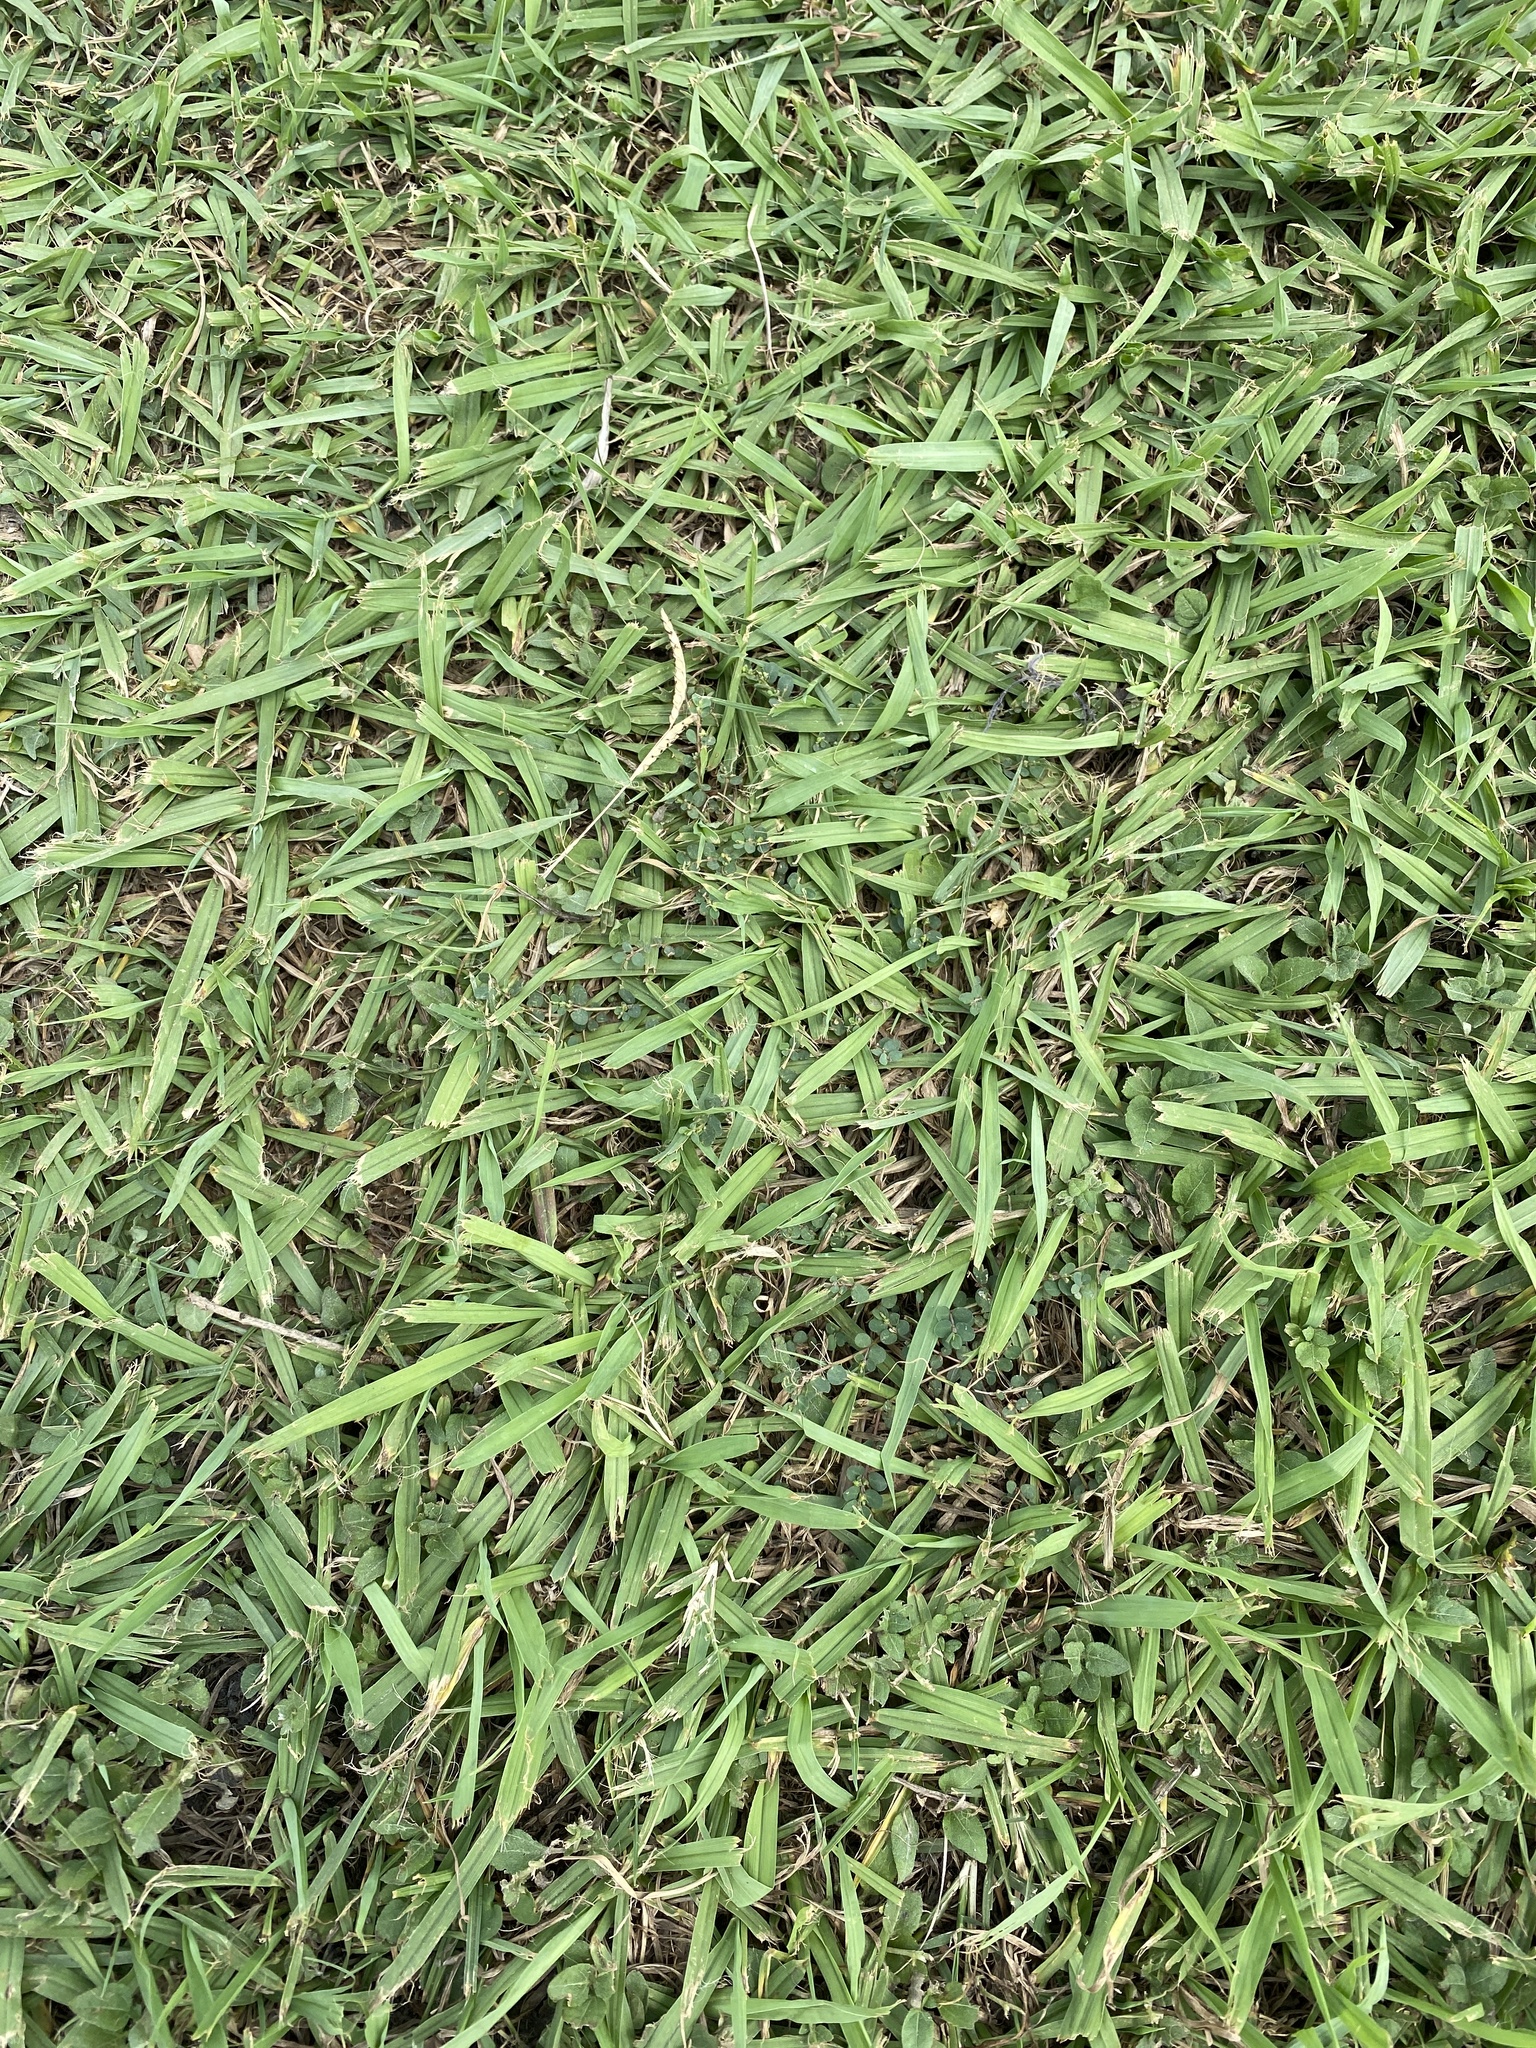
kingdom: Plantae
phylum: Tracheophyta
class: Liliopsida
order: Poales
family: Poaceae
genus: Stenotaphrum
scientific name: Stenotaphrum secundatum
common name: St. augustine grass
